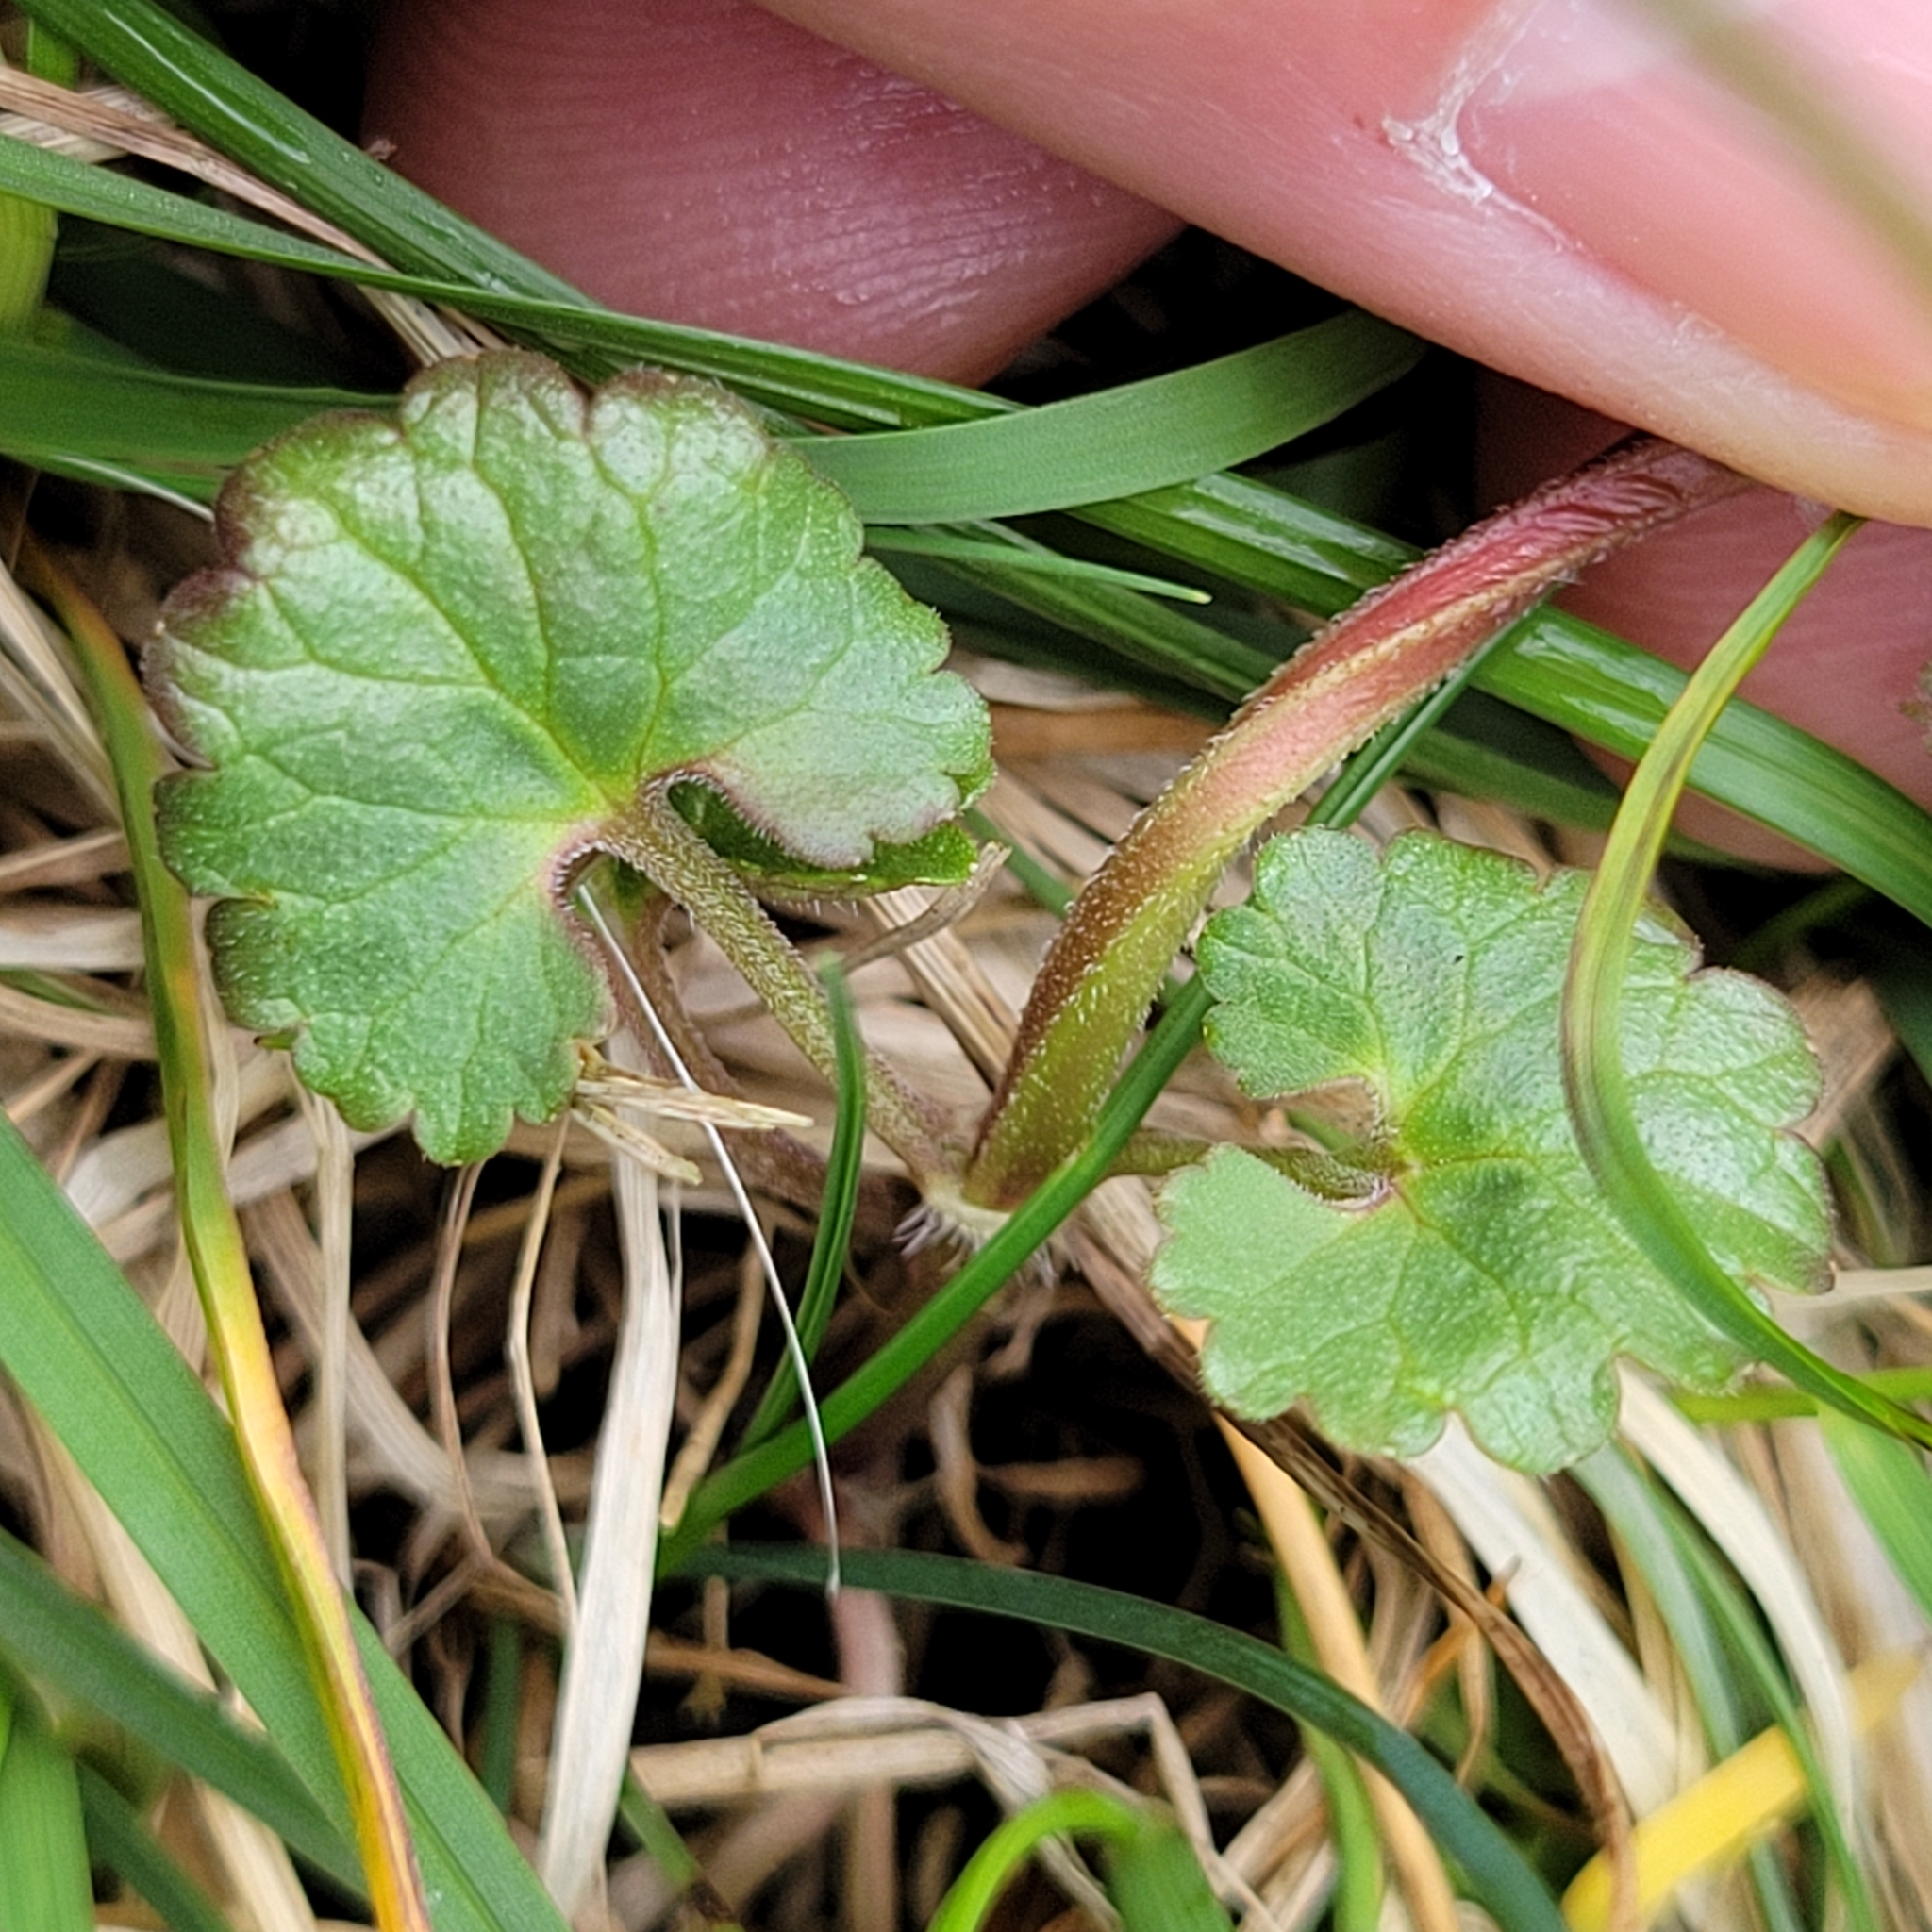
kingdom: Plantae
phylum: Tracheophyta
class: Magnoliopsida
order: Lamiales
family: Lamiaceae
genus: Glechoma
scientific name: Glechoma hederacea
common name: Ground ivy
